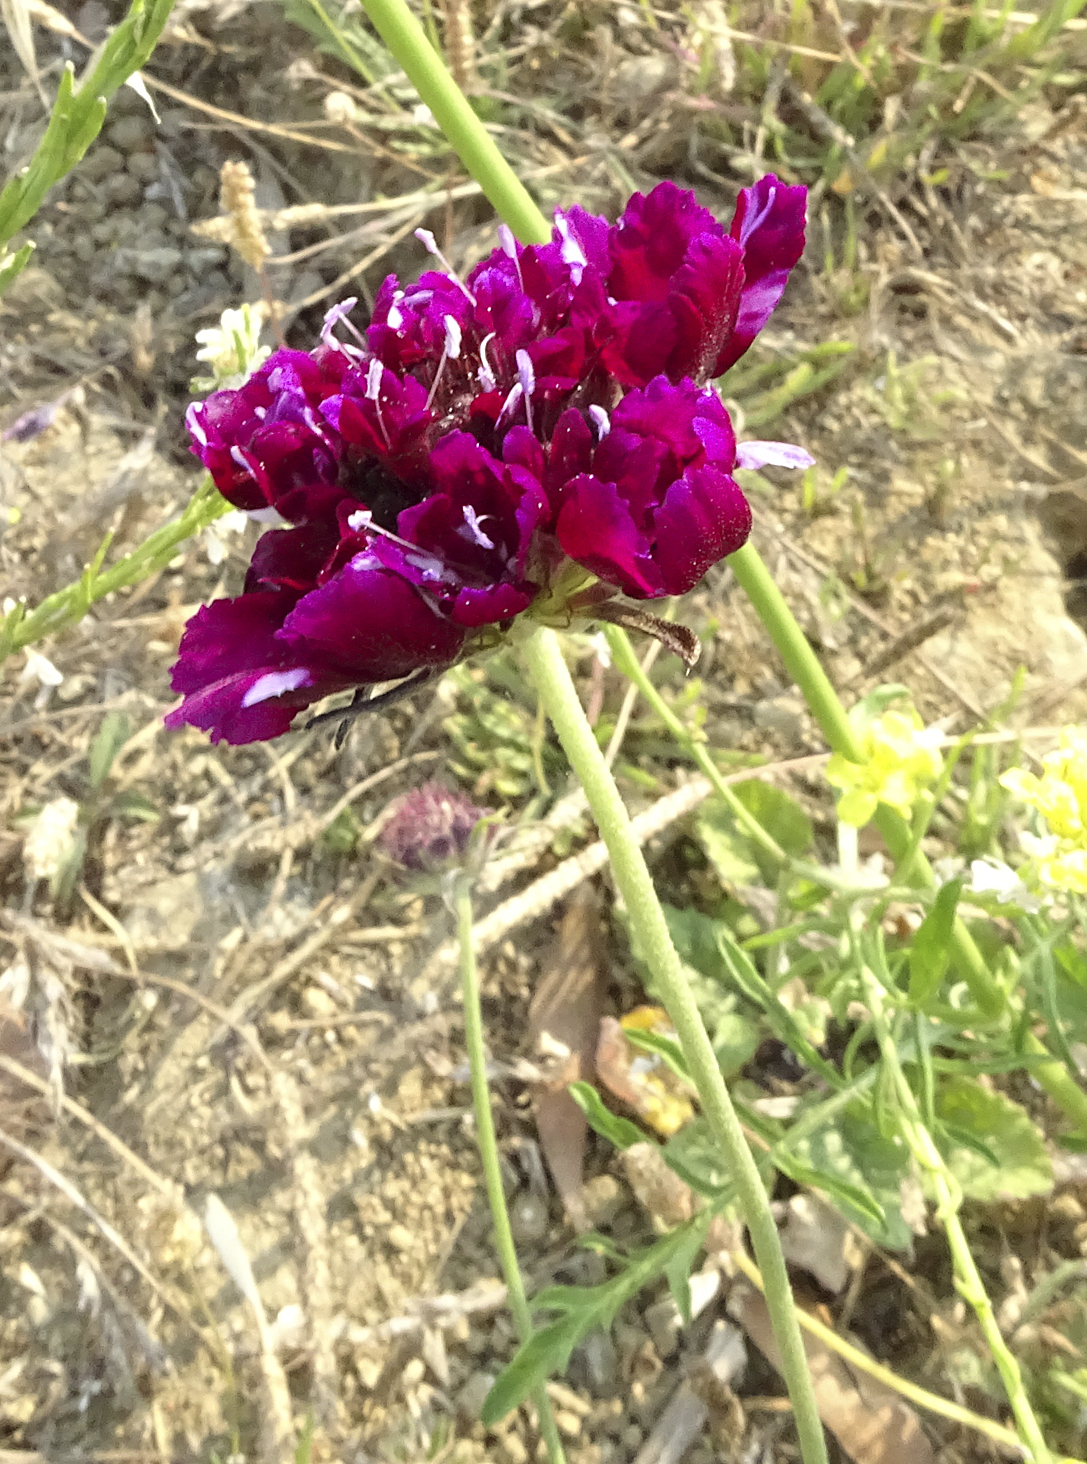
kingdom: Plantae
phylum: Tracheophyta
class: Magnoliopsida
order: Dipsacales
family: Caprifoliaceae
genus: Sixalix
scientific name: Sixalix atropurpurea
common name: Sweet scabious
